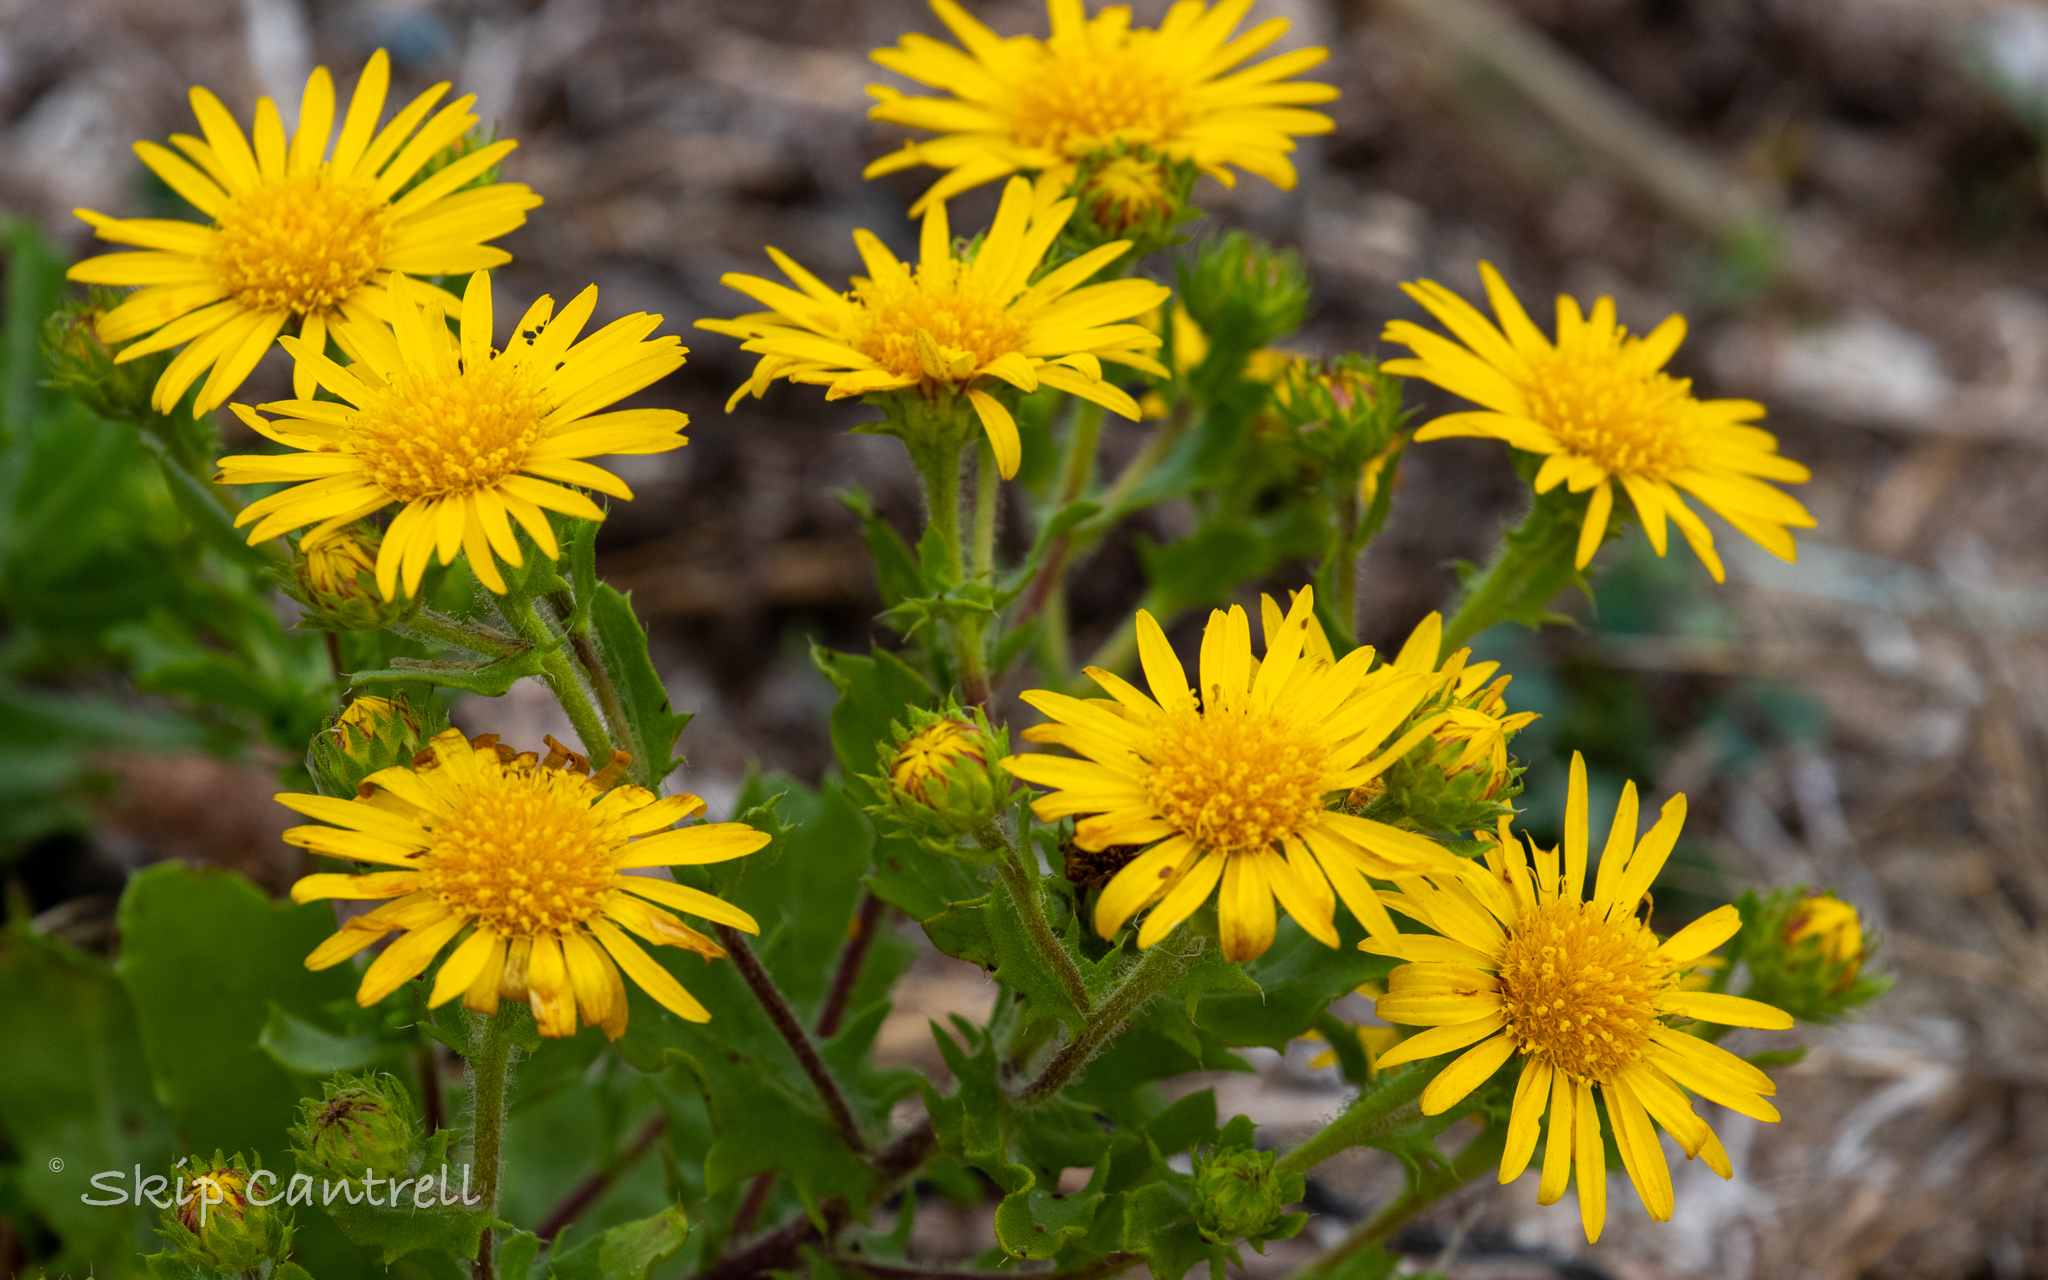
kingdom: Plantae
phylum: Tracheophyta
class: Magnoliopsida
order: Asterales
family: Asteraceae
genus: Rayjacksonia
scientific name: Rayjacksonia phyllocephala
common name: Gulf coast camphor daisy
